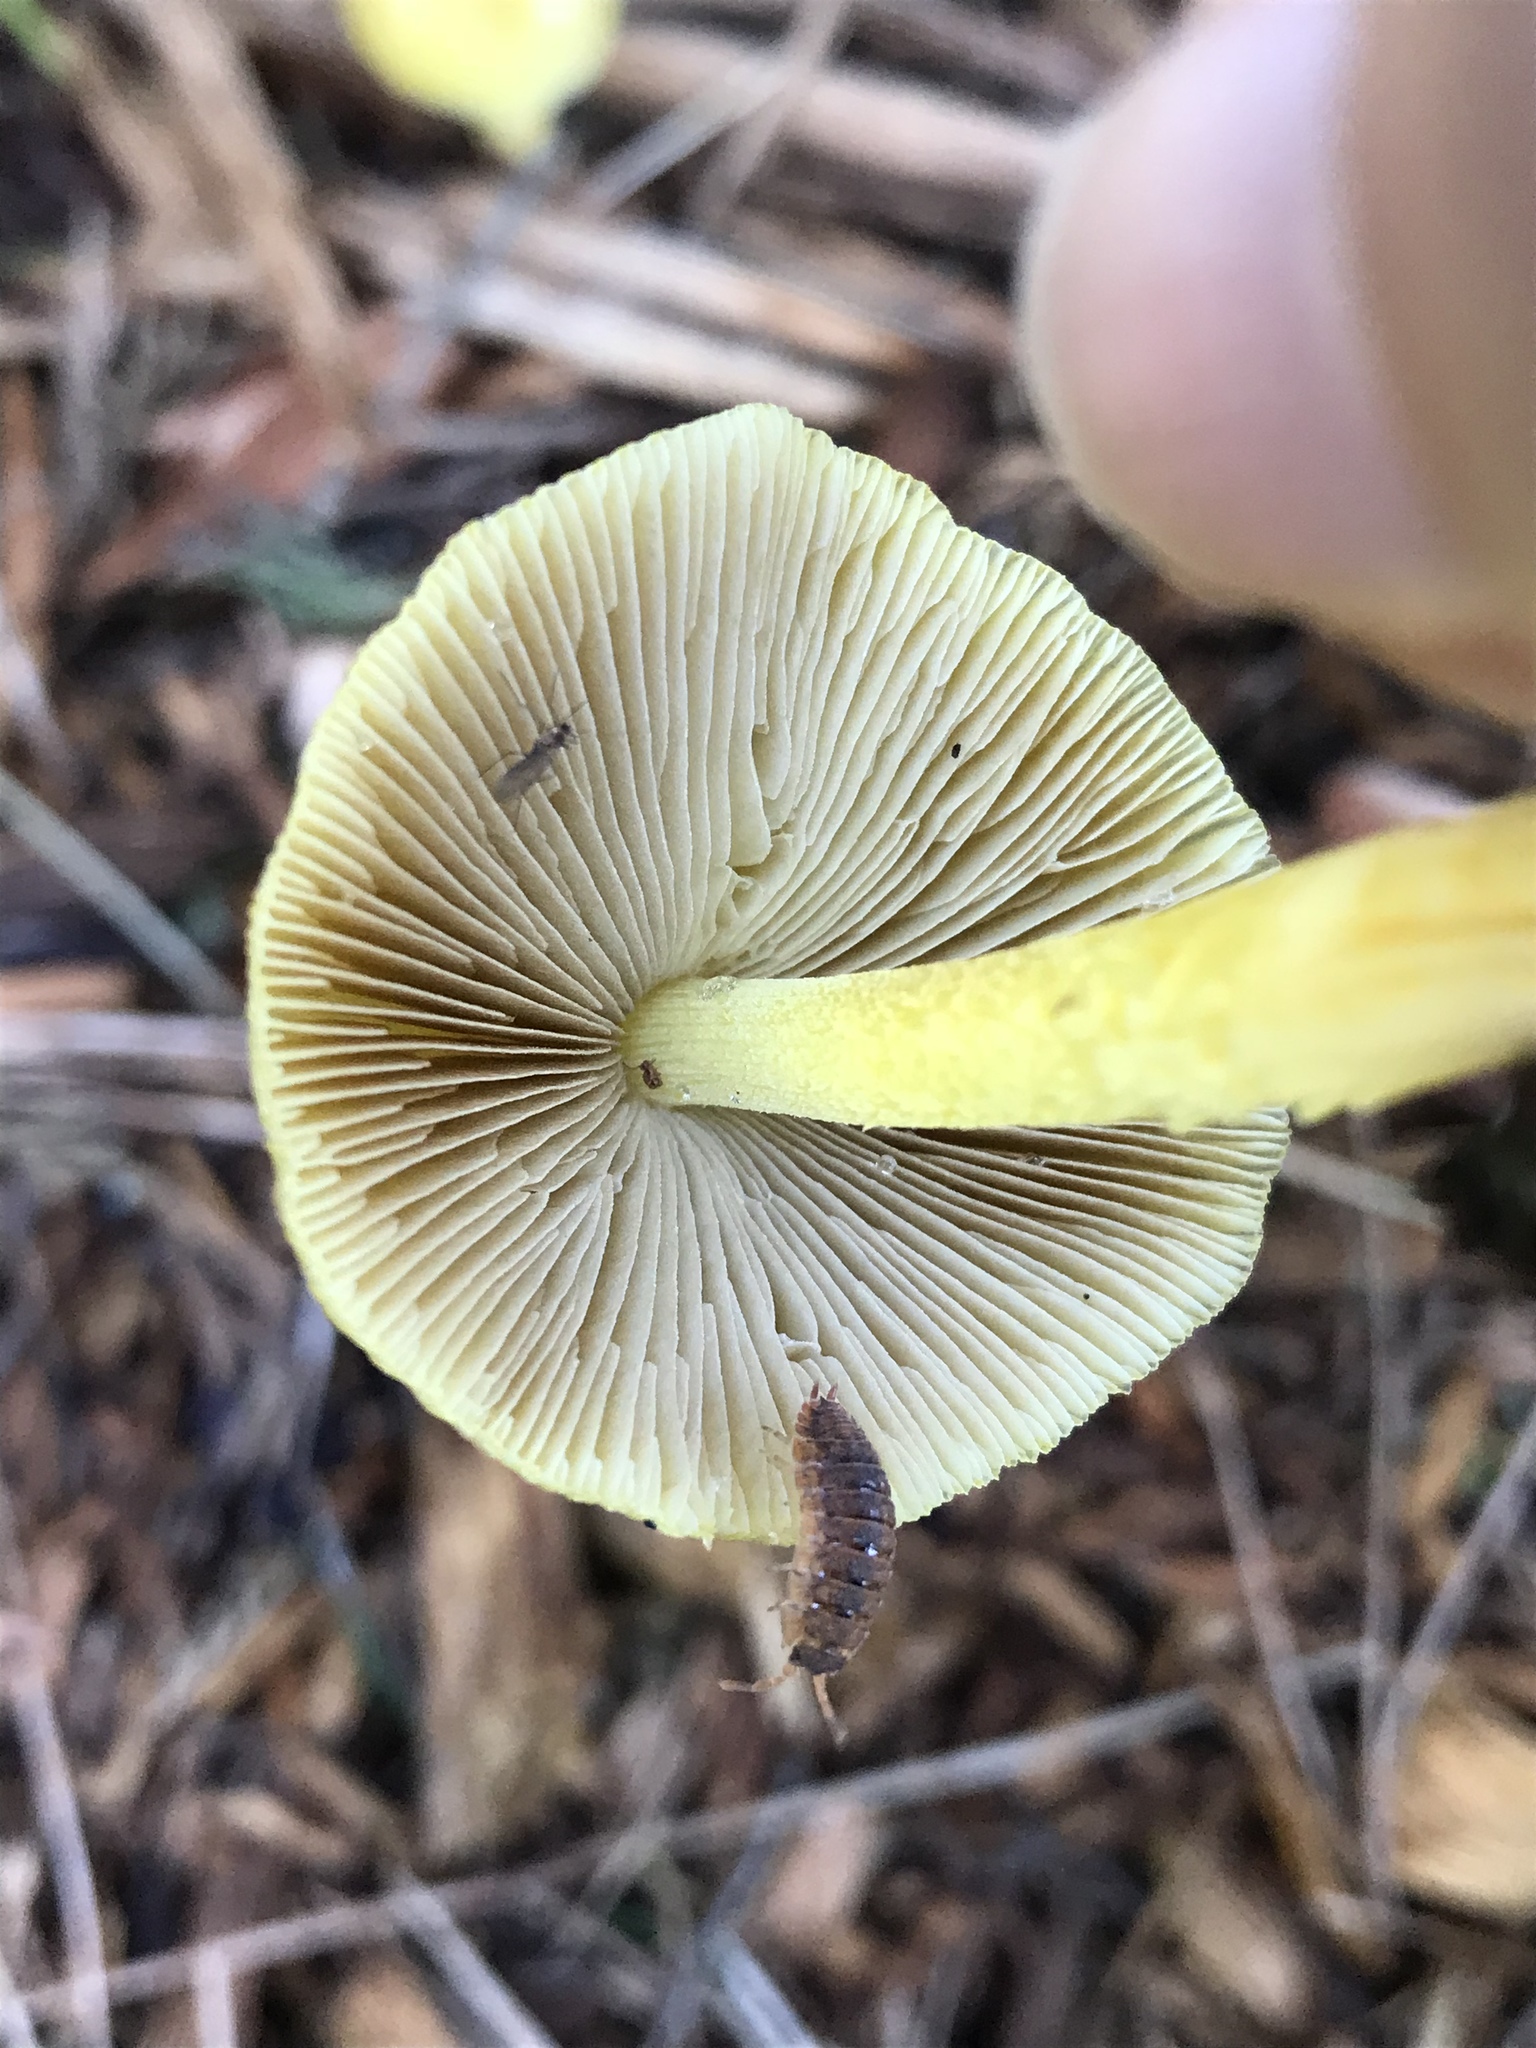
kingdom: Fungi
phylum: Basidiomycota
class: Agaricomycetes
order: Agaricales
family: Bolbitiaceae
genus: Bolbitius
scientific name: Bolbitius titubans
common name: Yellow fieldcap
